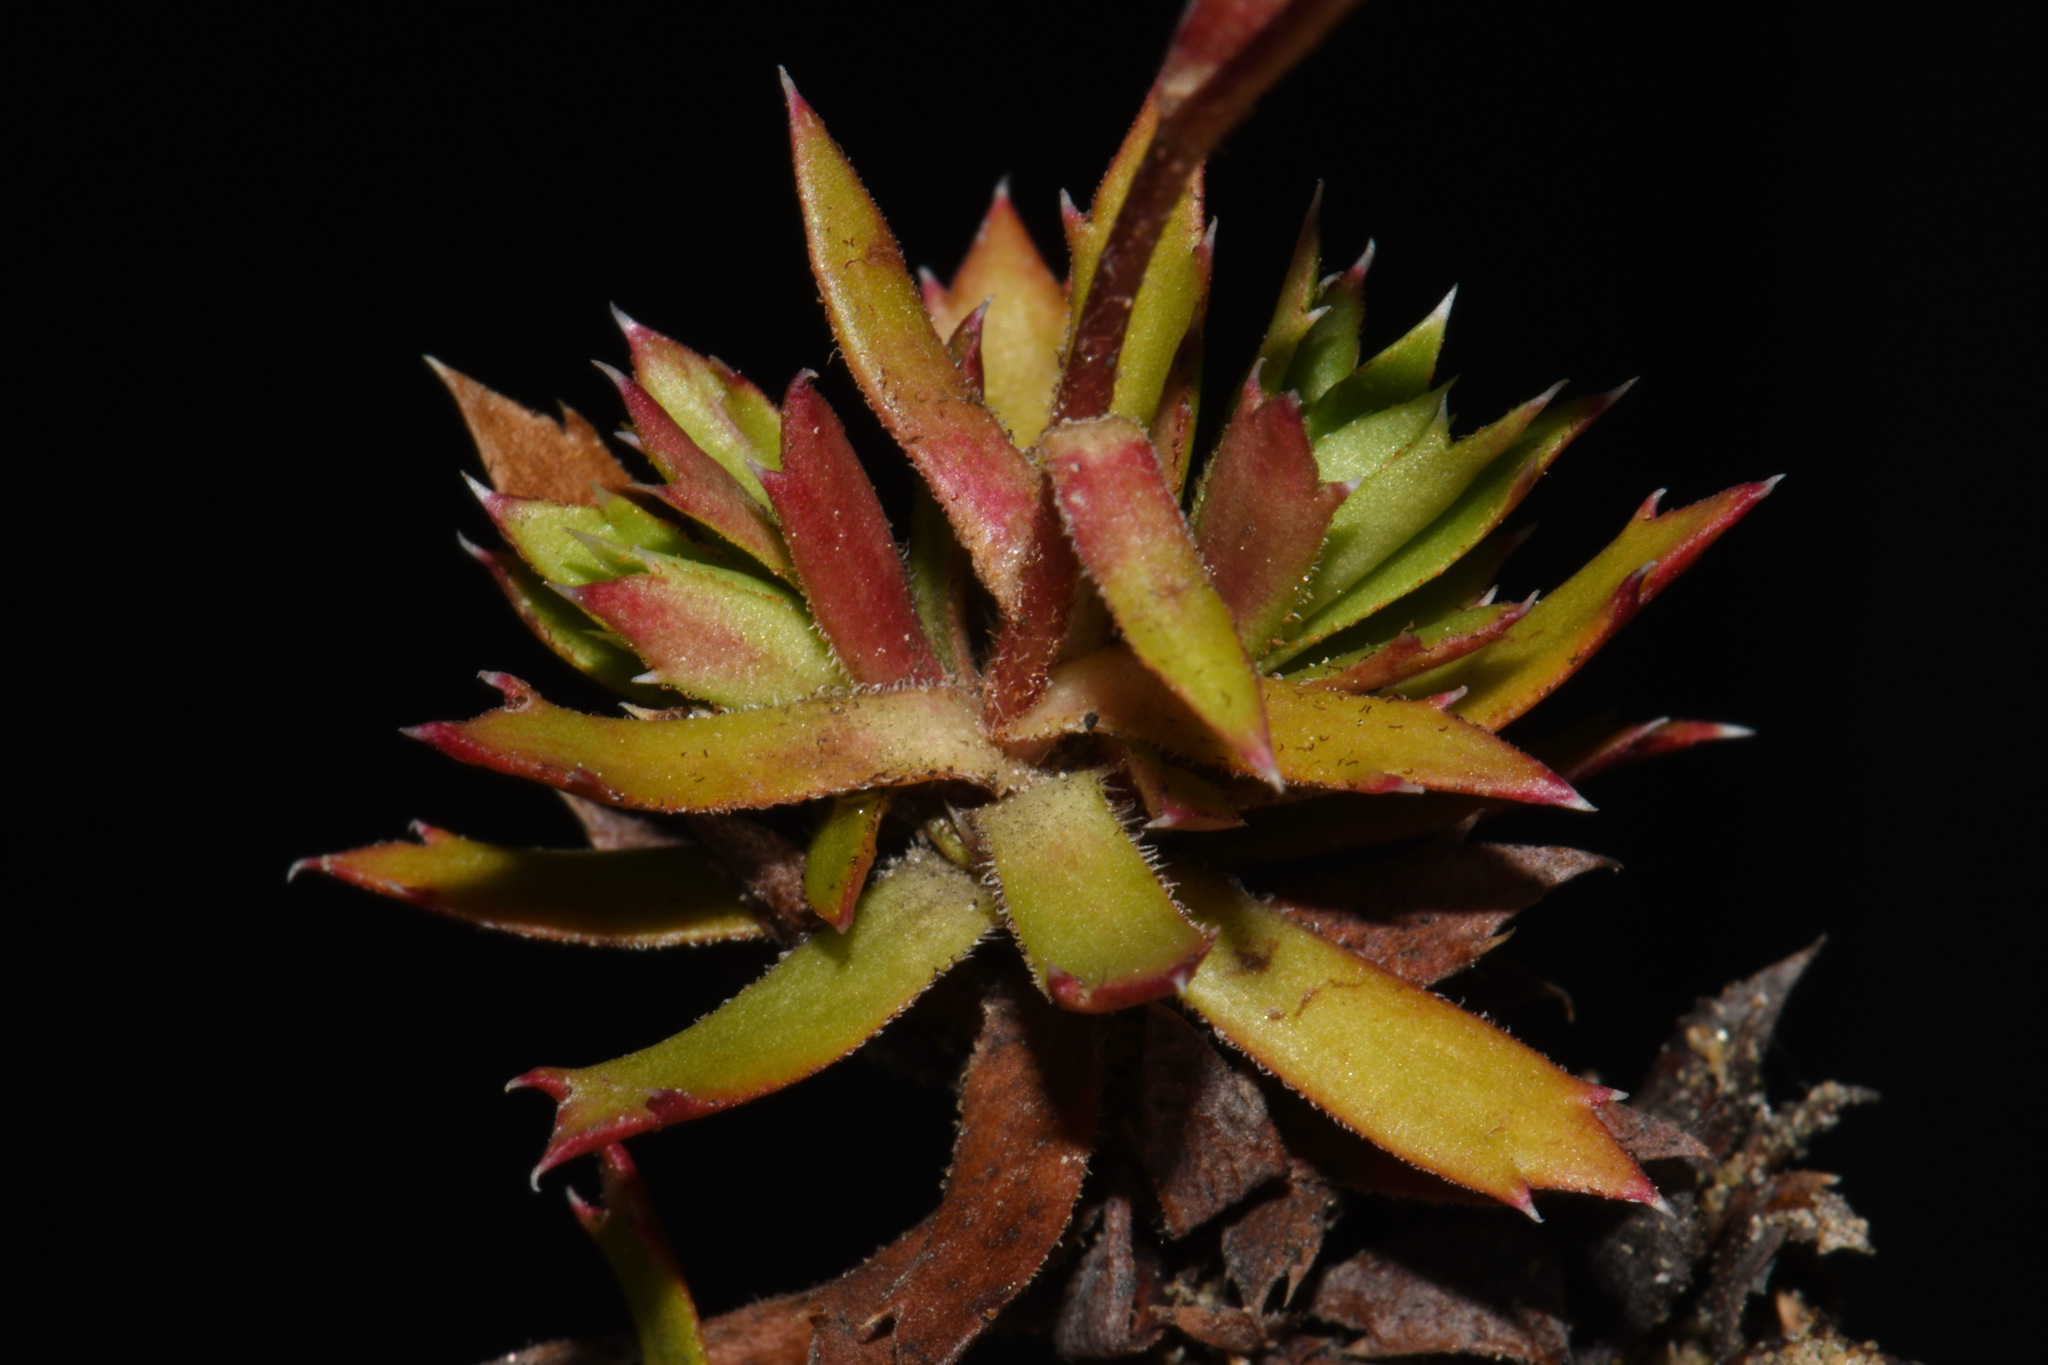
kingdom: Plantae
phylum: Tracheophyta
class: Magnoliopsida
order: Saxifragales
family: Saxifragaceae
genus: Saxifraga
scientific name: Saxifraga tricuspidata
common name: Prickly saxifrage
